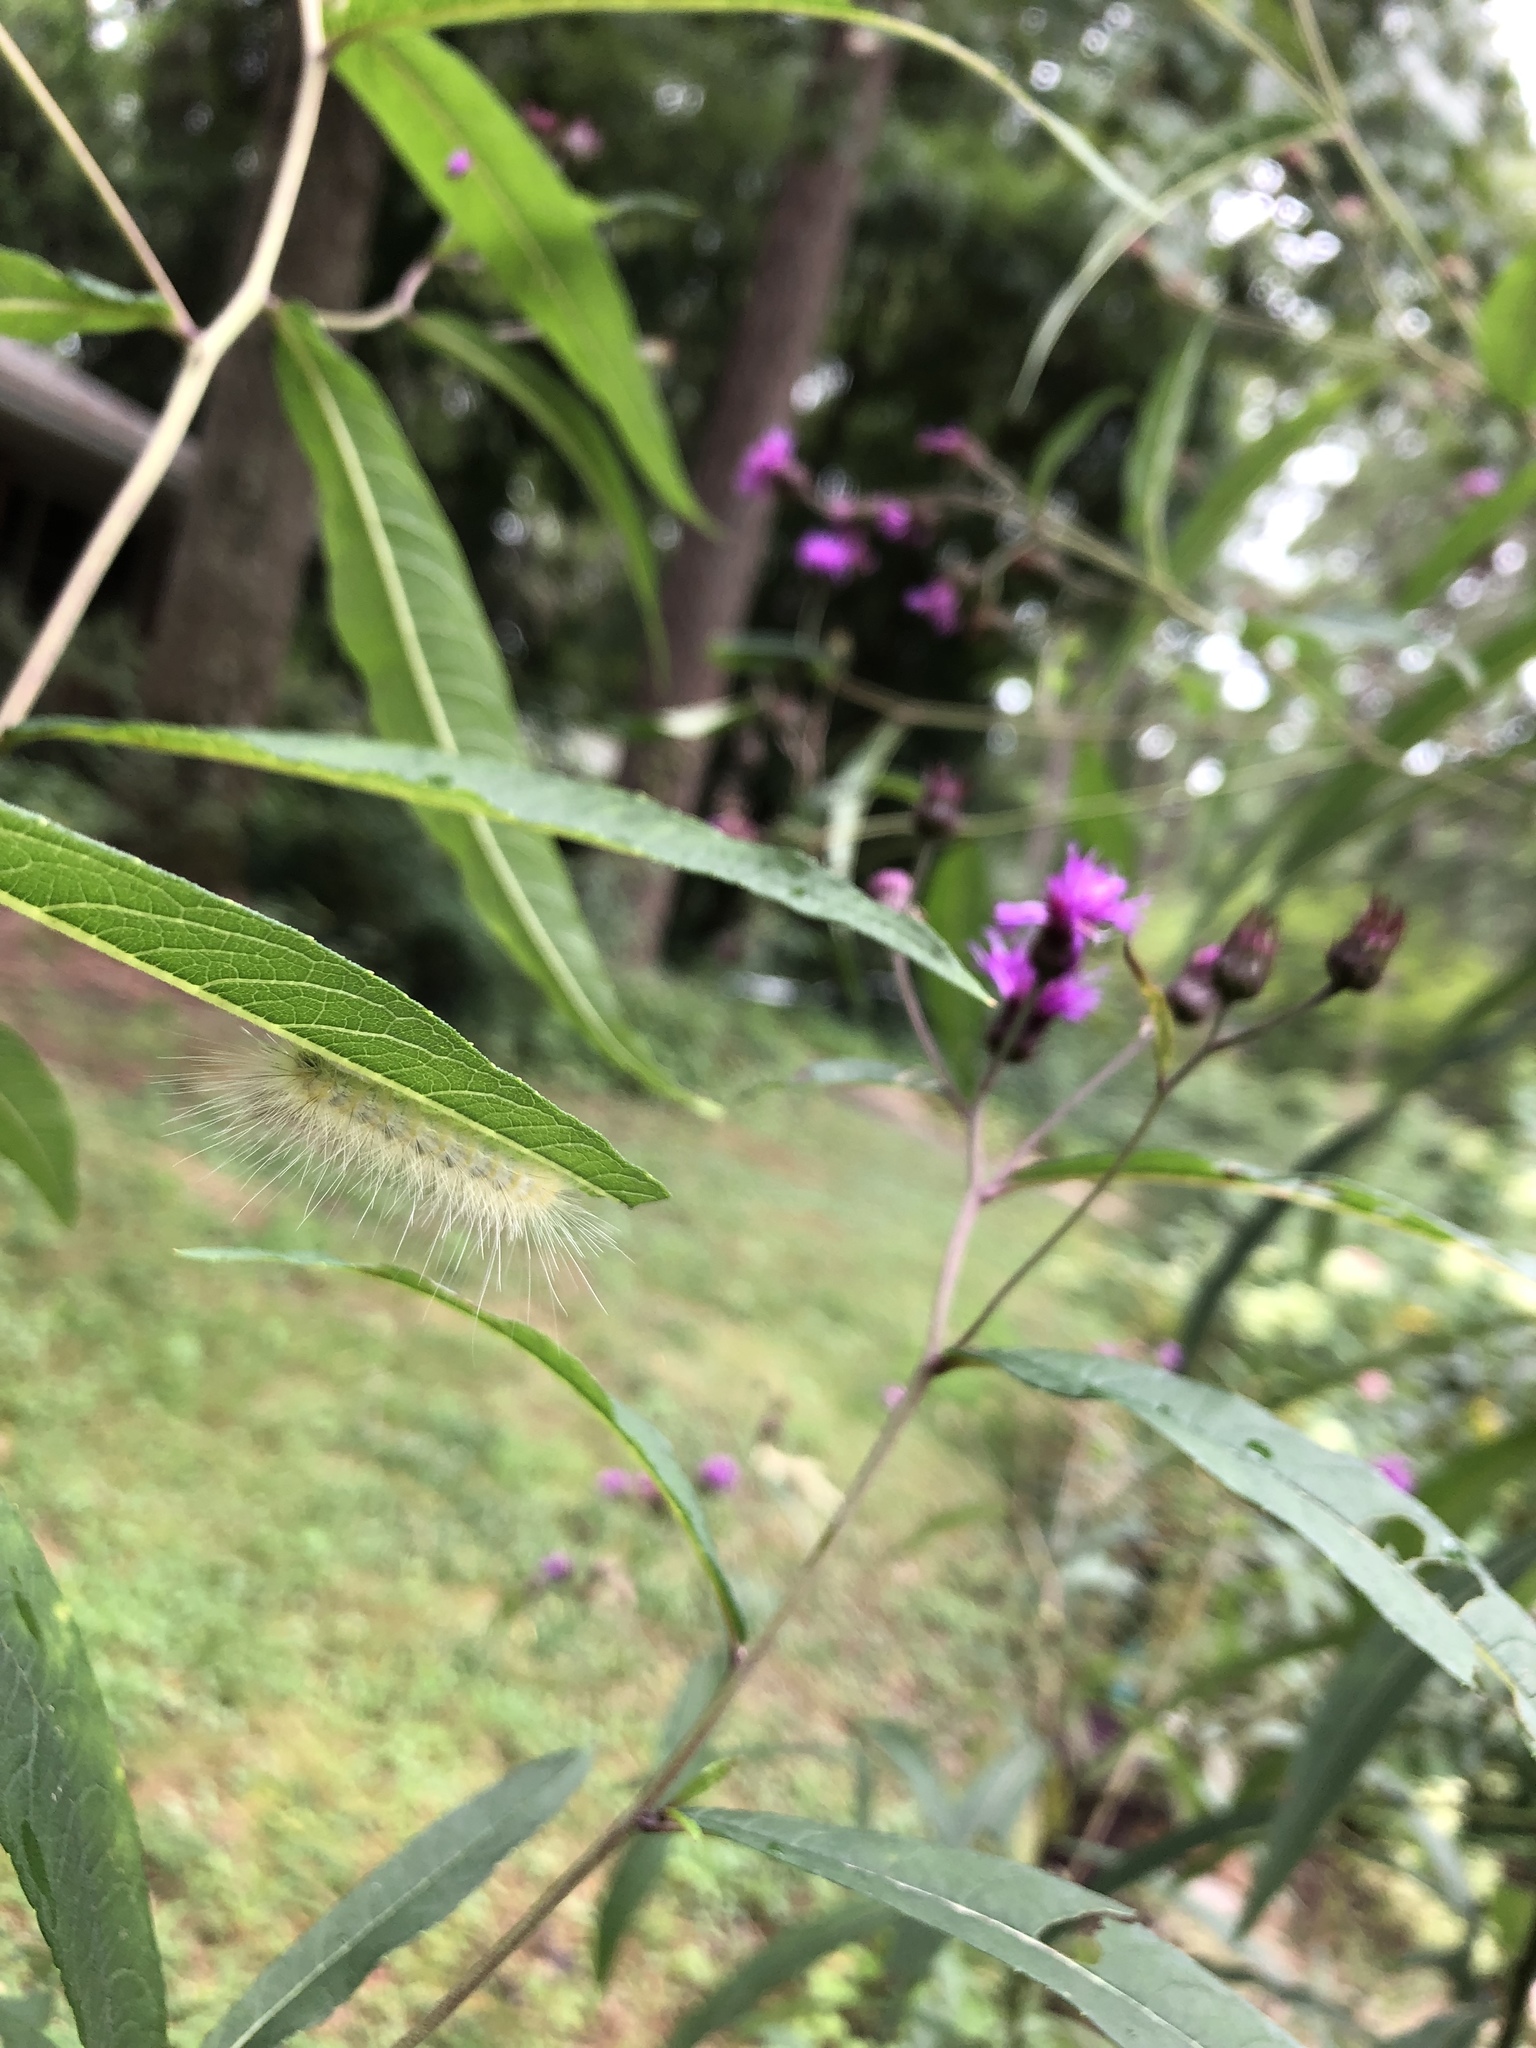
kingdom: Animalia
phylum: Arthropoda
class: Insecta
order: Lepidoptera
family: Erebidae
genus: Hyphantria
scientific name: Hyphantria cunea
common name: American white moth
